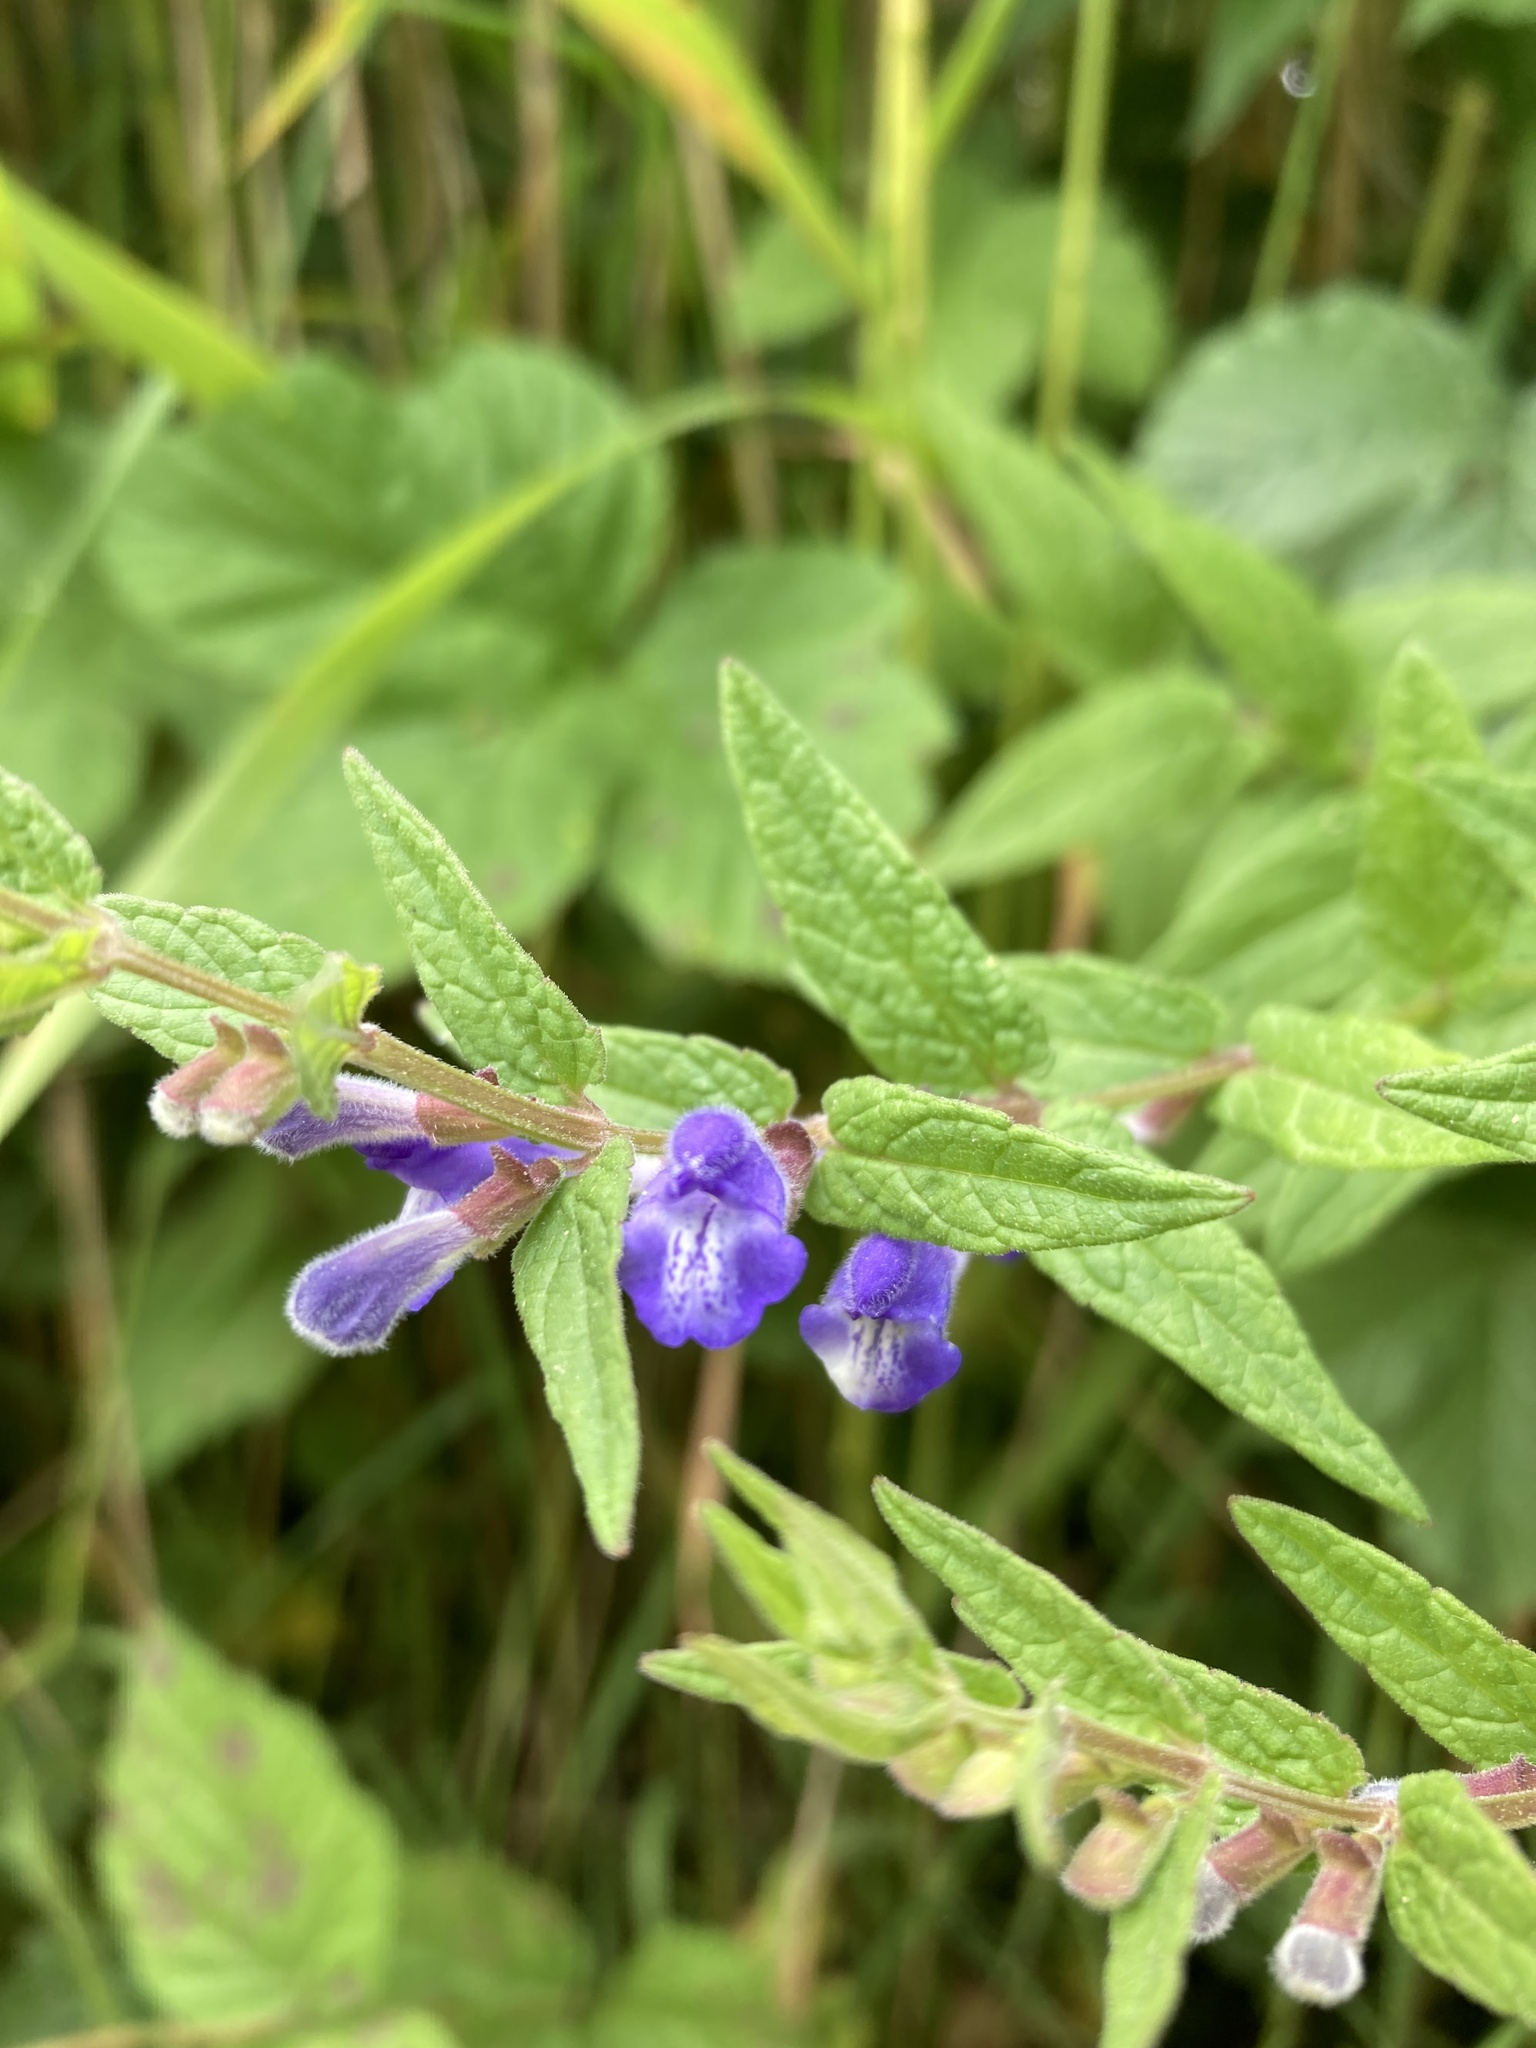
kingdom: Plantae
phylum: Tracheophyta
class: Magnoliopsida
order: Lamiales
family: Lamiaceae
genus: Scutellaria
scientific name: Scutellaria galericulata
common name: Skullcap
